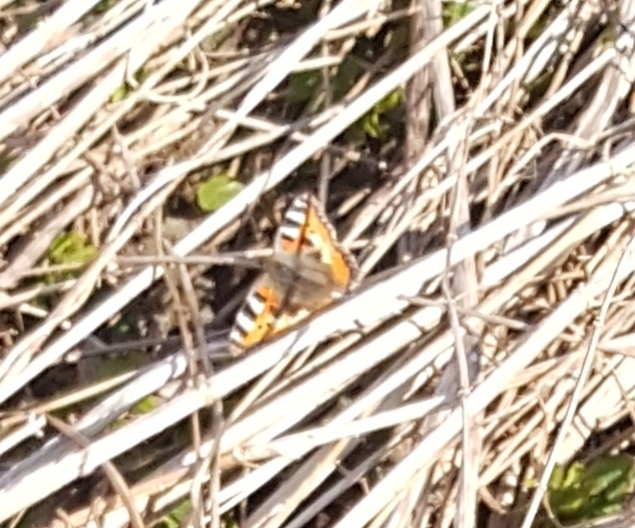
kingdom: Animalia
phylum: Arthropoda
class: Insecta
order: Lepidoptera
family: Nymphalidae
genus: Aglais
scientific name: Aglais urticae
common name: Small tortoiseshell
